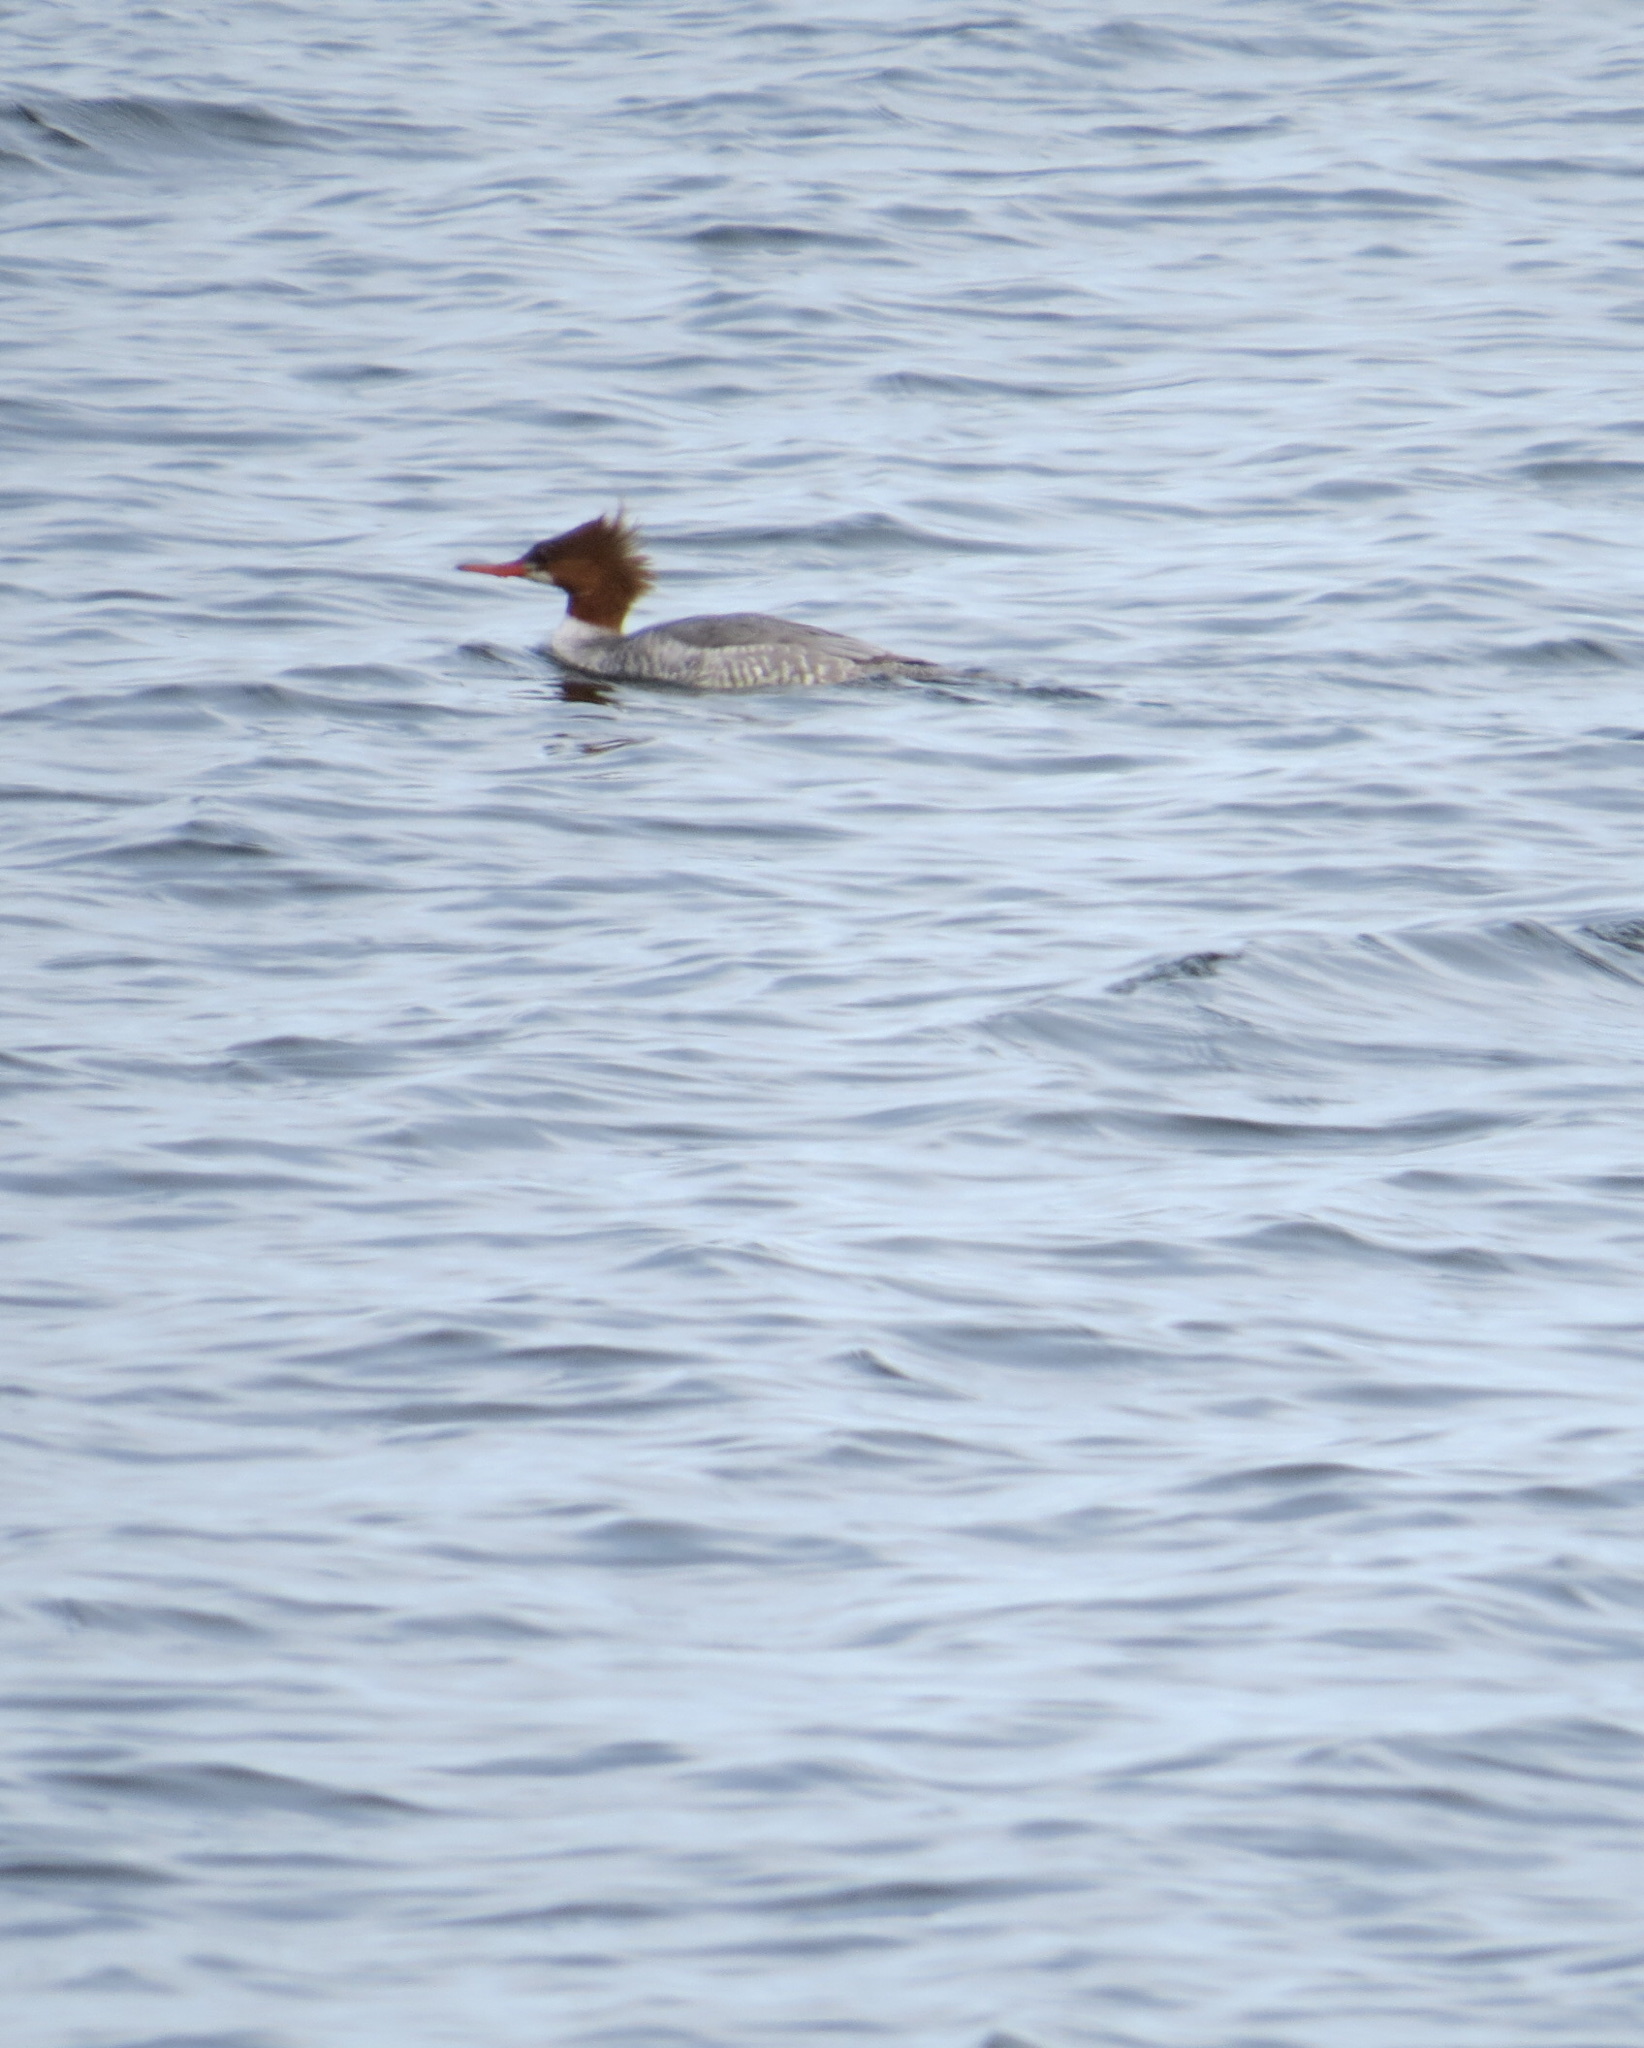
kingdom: Animalia
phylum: Chordata
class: Aves
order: Anseriformes
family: Anatidae
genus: Mergus
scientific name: Mergus merganser
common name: Common merganser
